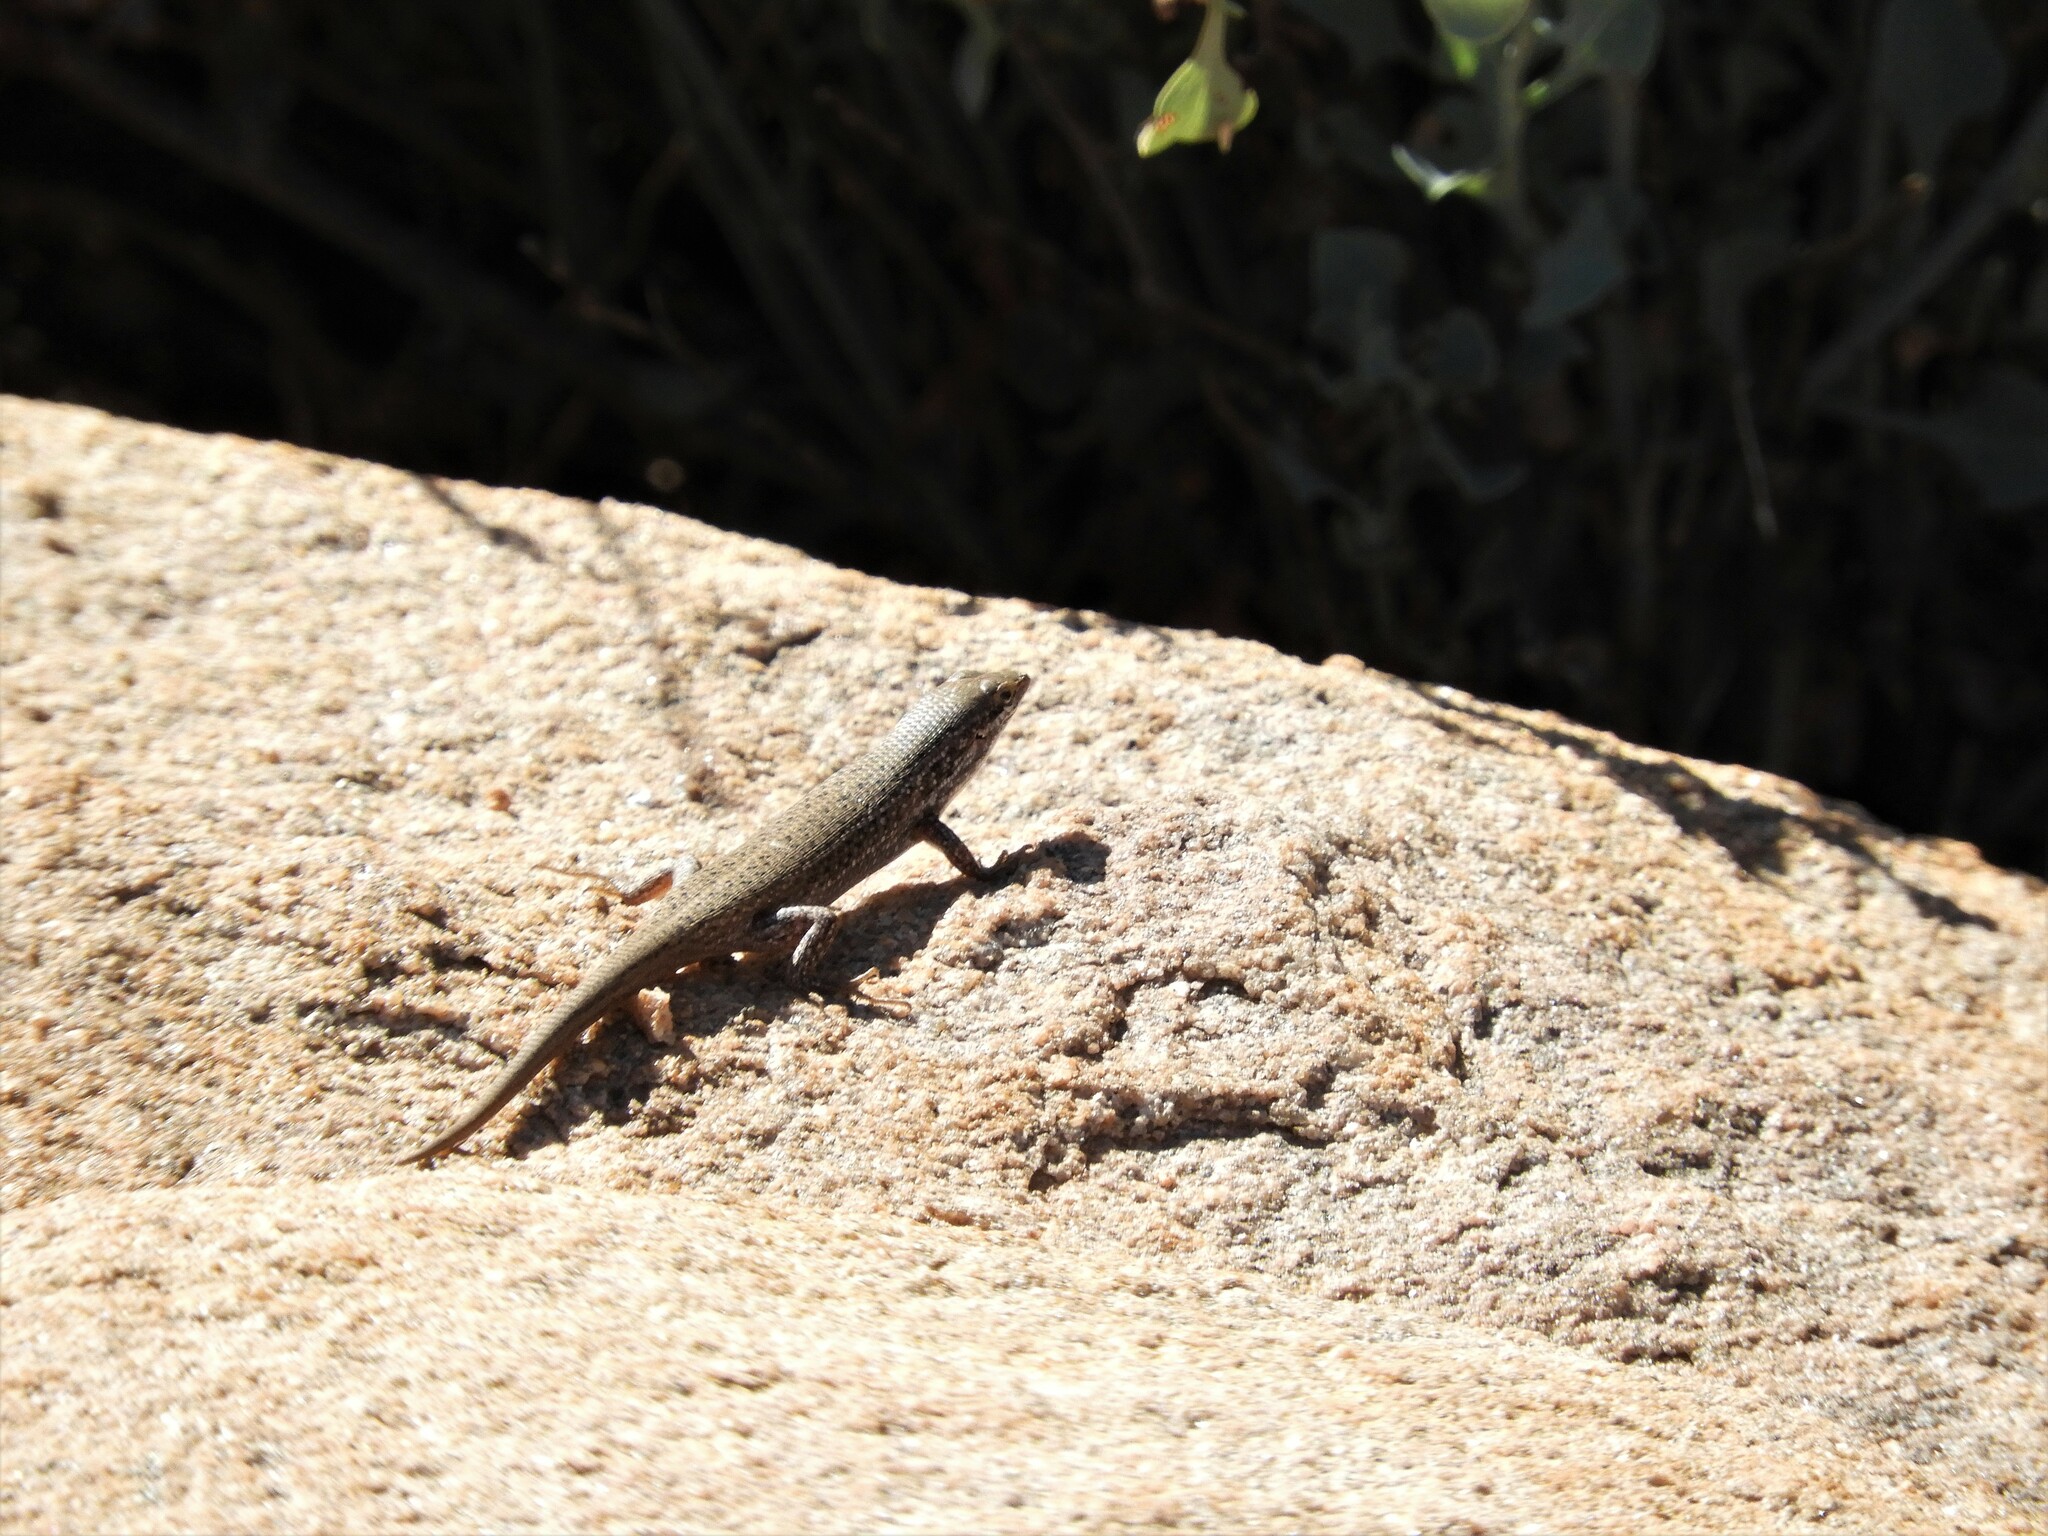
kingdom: Animalia
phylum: Chordata
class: Squamata
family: Scincidae
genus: Trachylepis
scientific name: Trachylepis variegata
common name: Variegated skink
